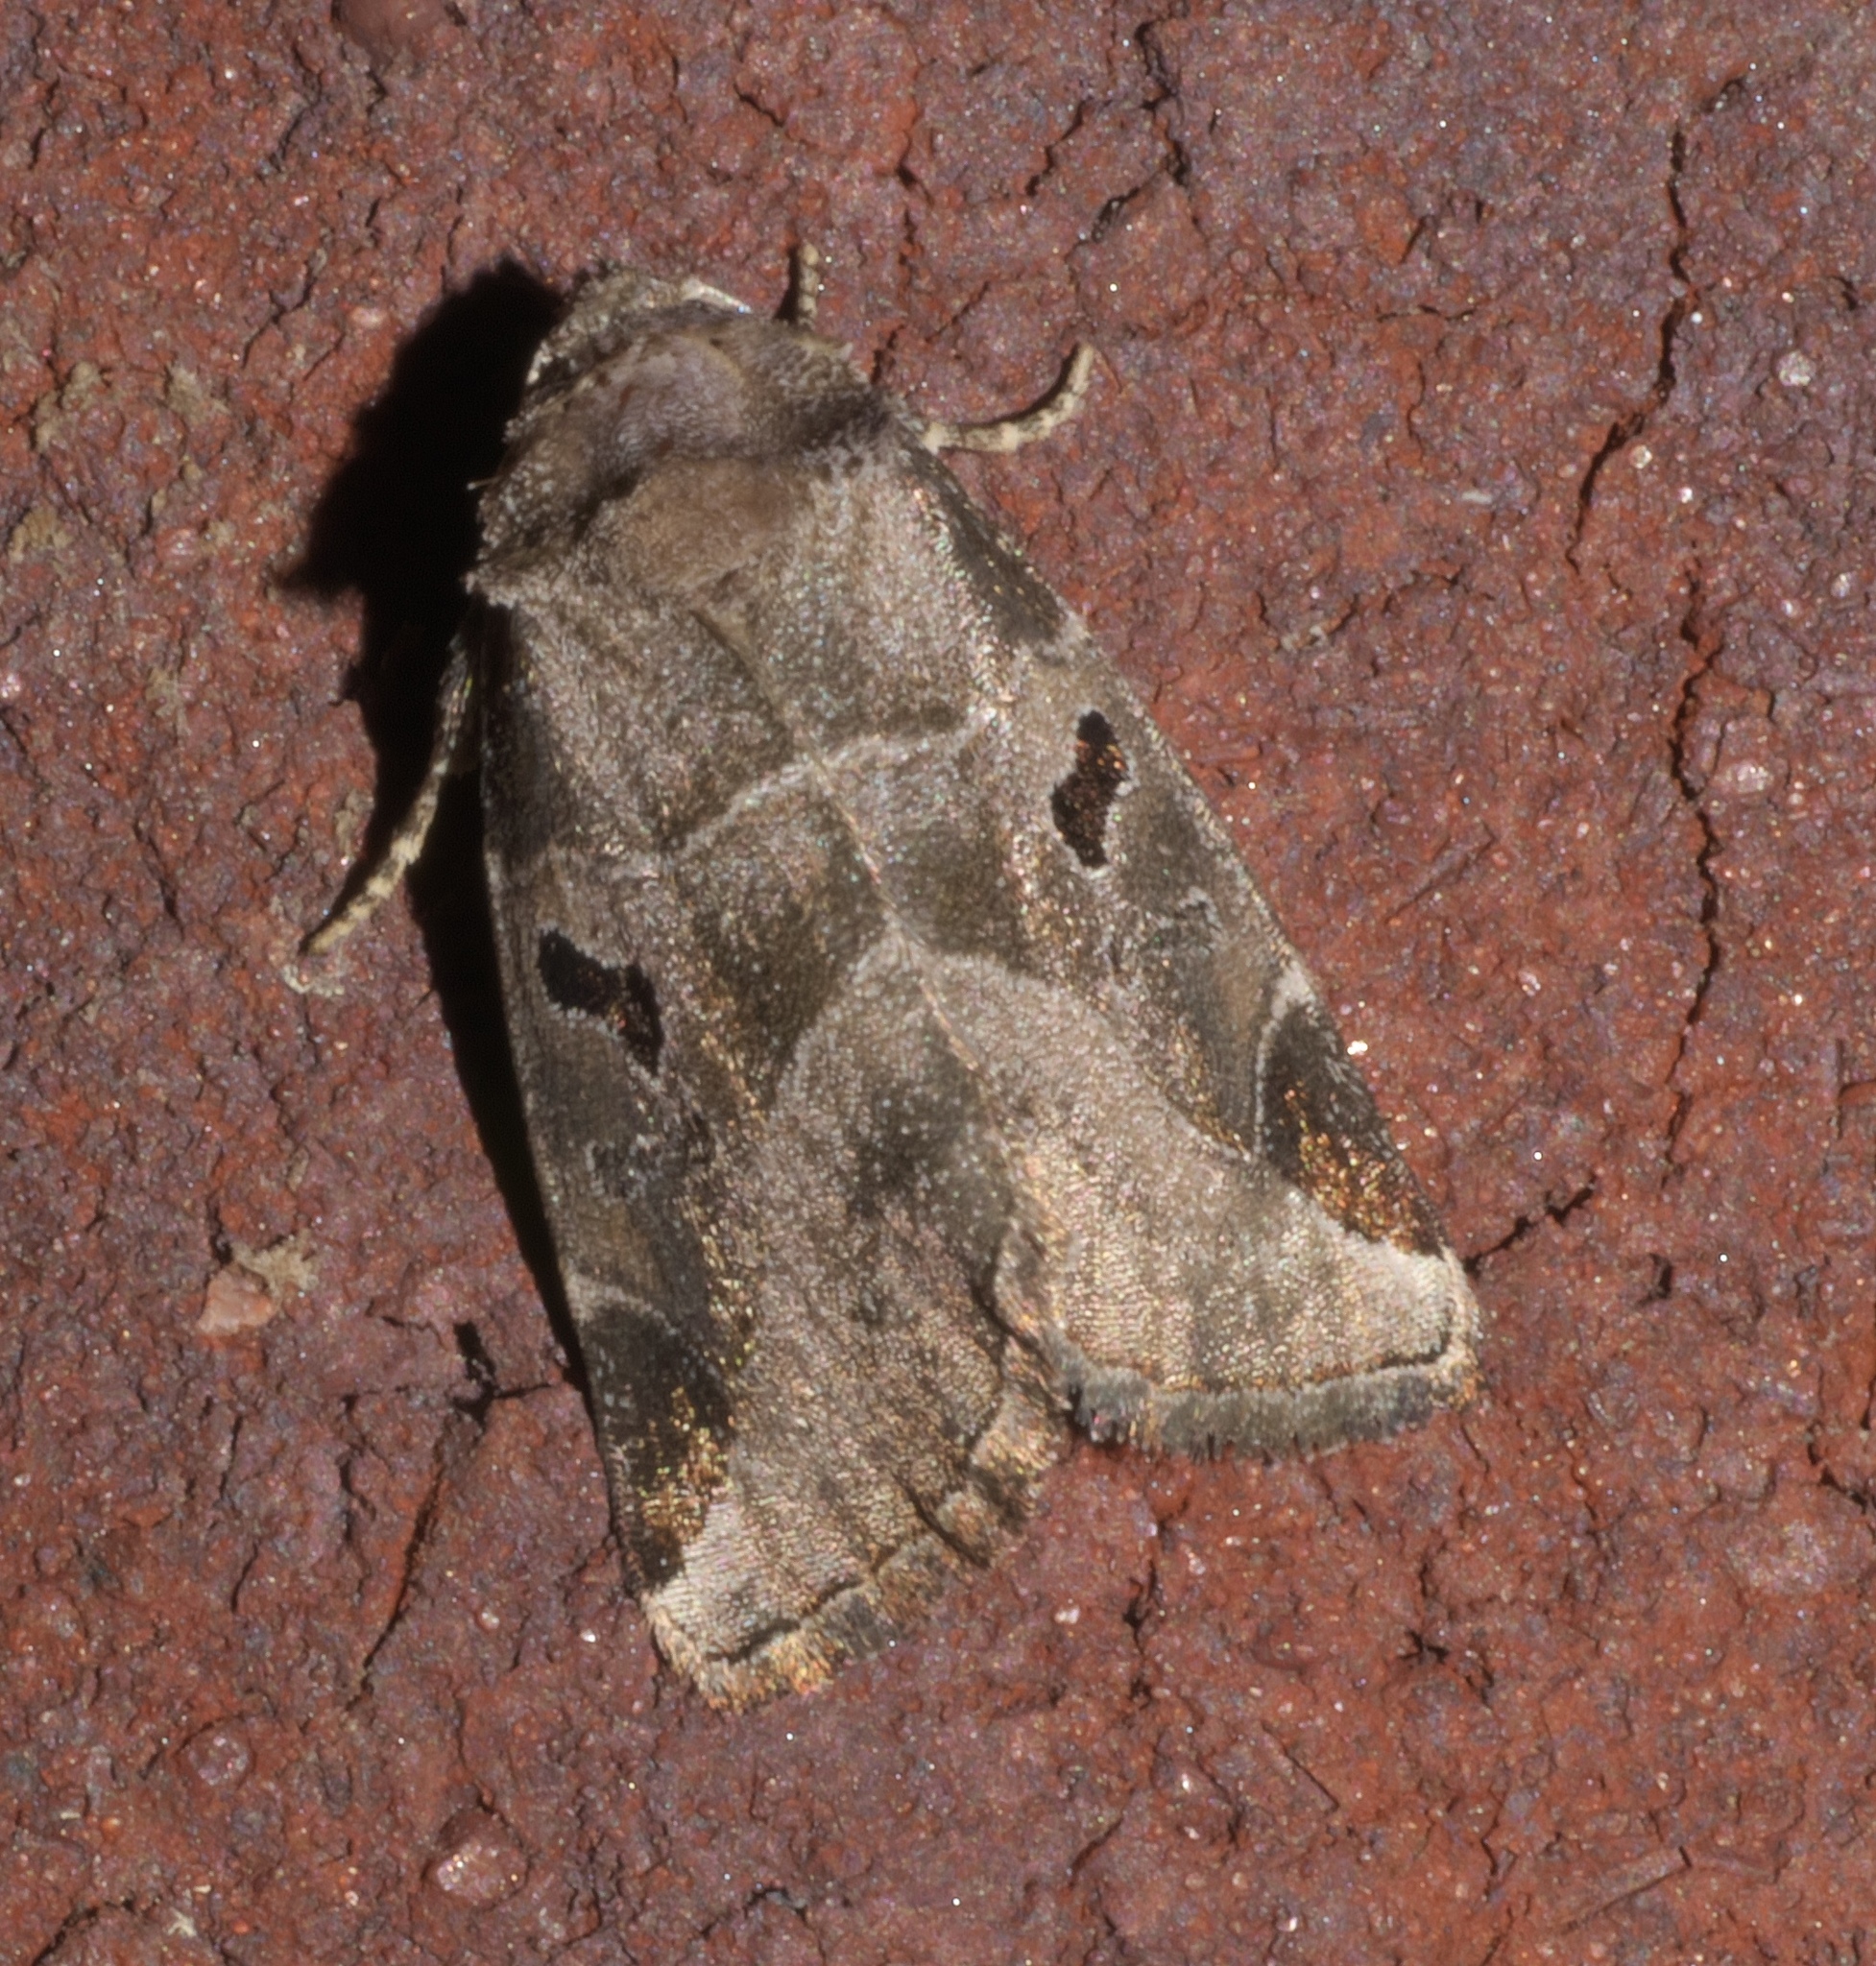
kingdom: Animalia
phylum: Arthropoda
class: Insecta
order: Lepidoptera
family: Noctuidae
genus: Plagiomimicus
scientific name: Plagiomimicus pityochromus
